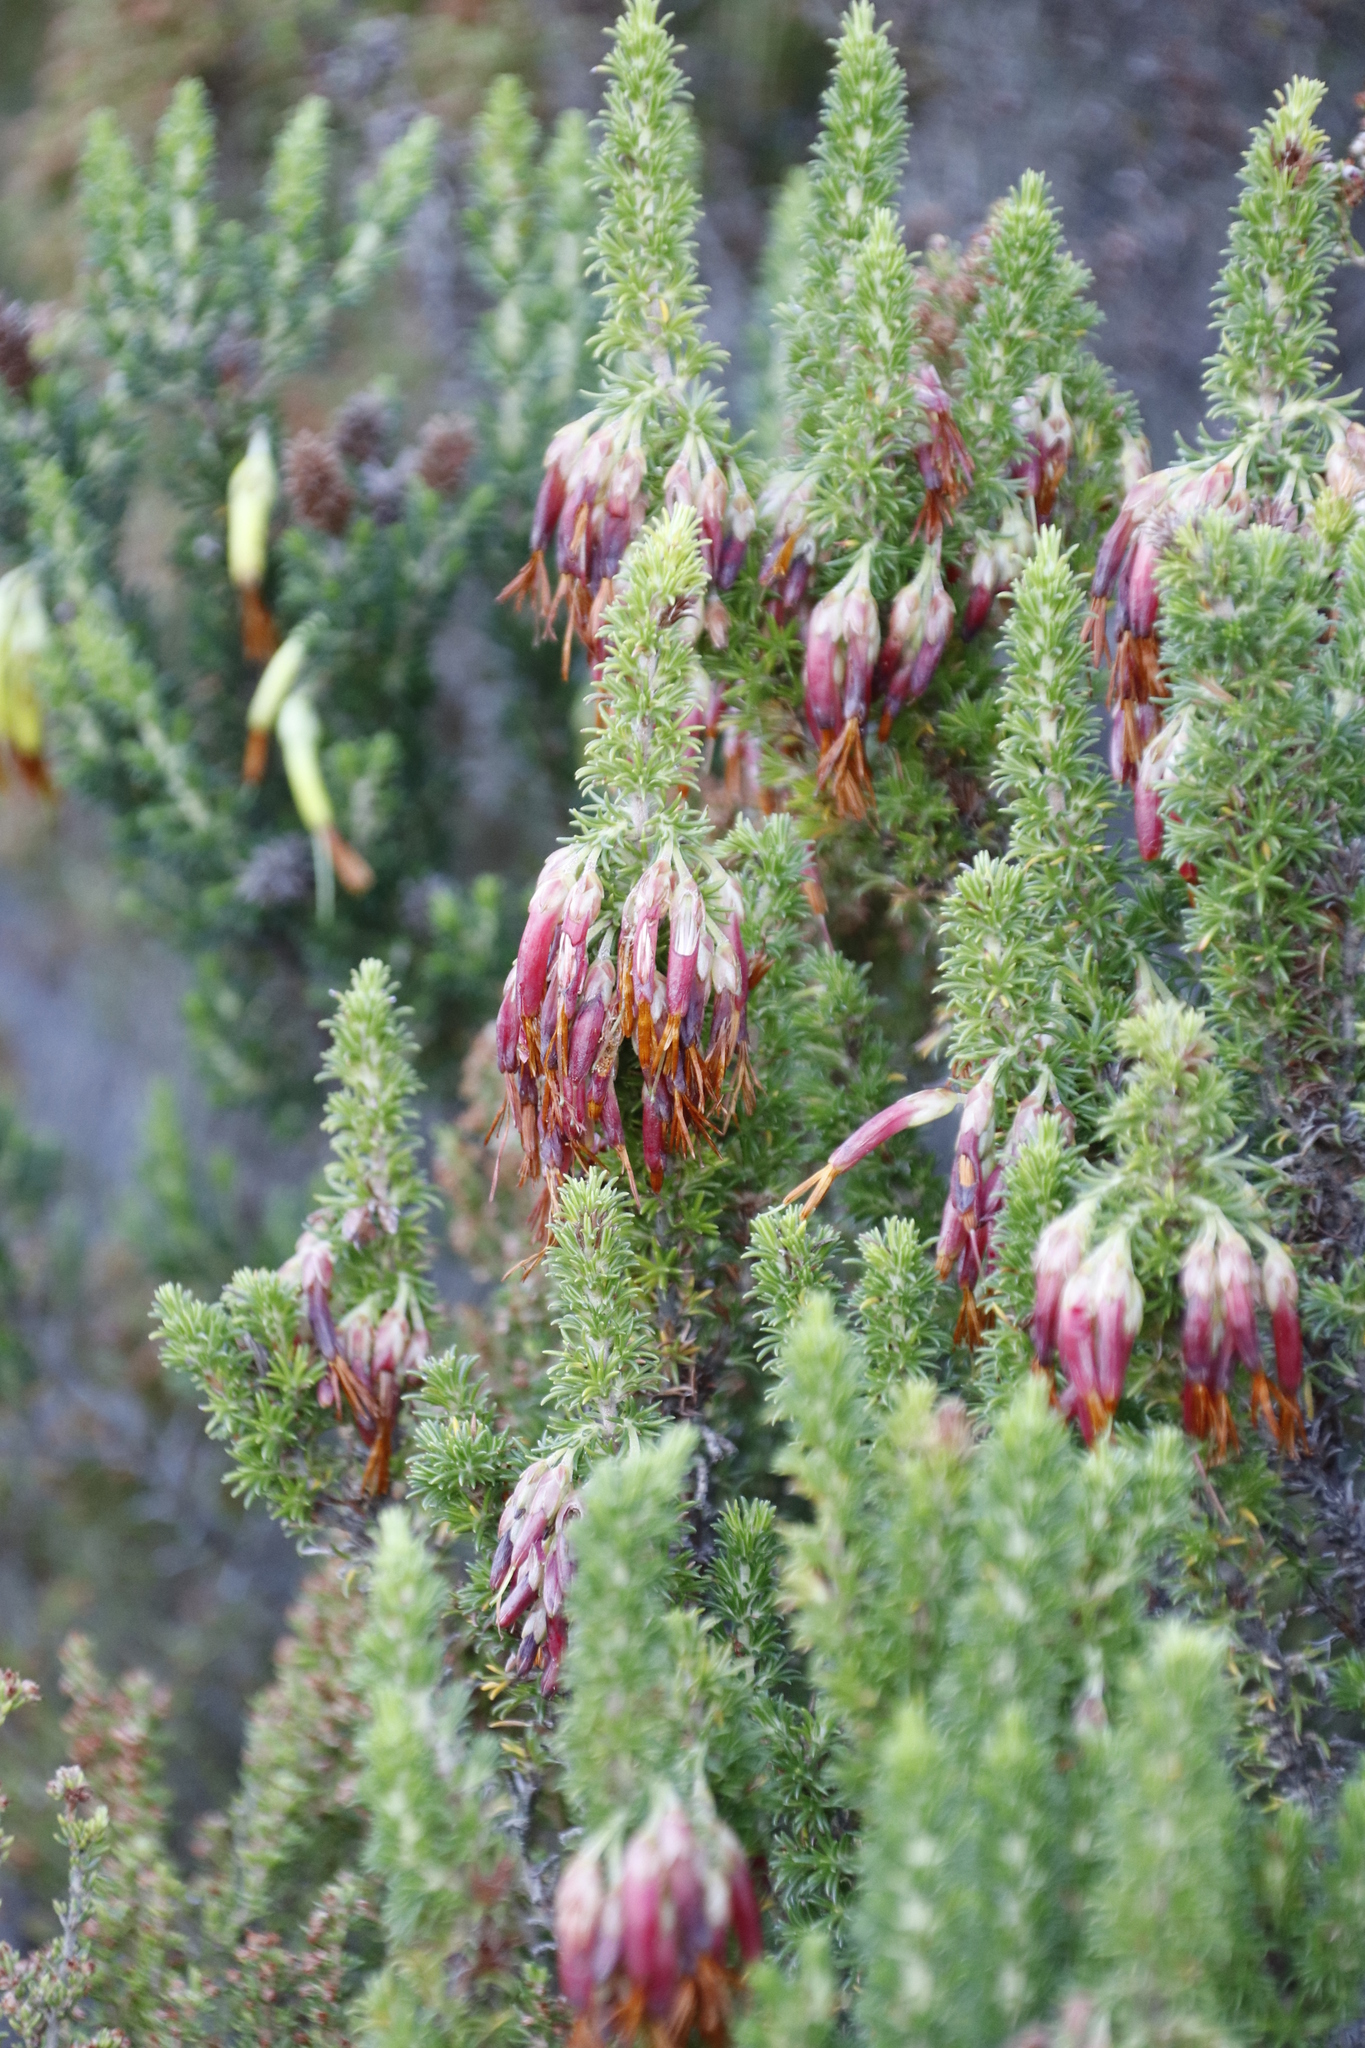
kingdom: Plantae
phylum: Tracheophyta
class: Magnoliopsida
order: Ericales
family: Ericaceae
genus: Erica
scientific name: Erica coccinea
